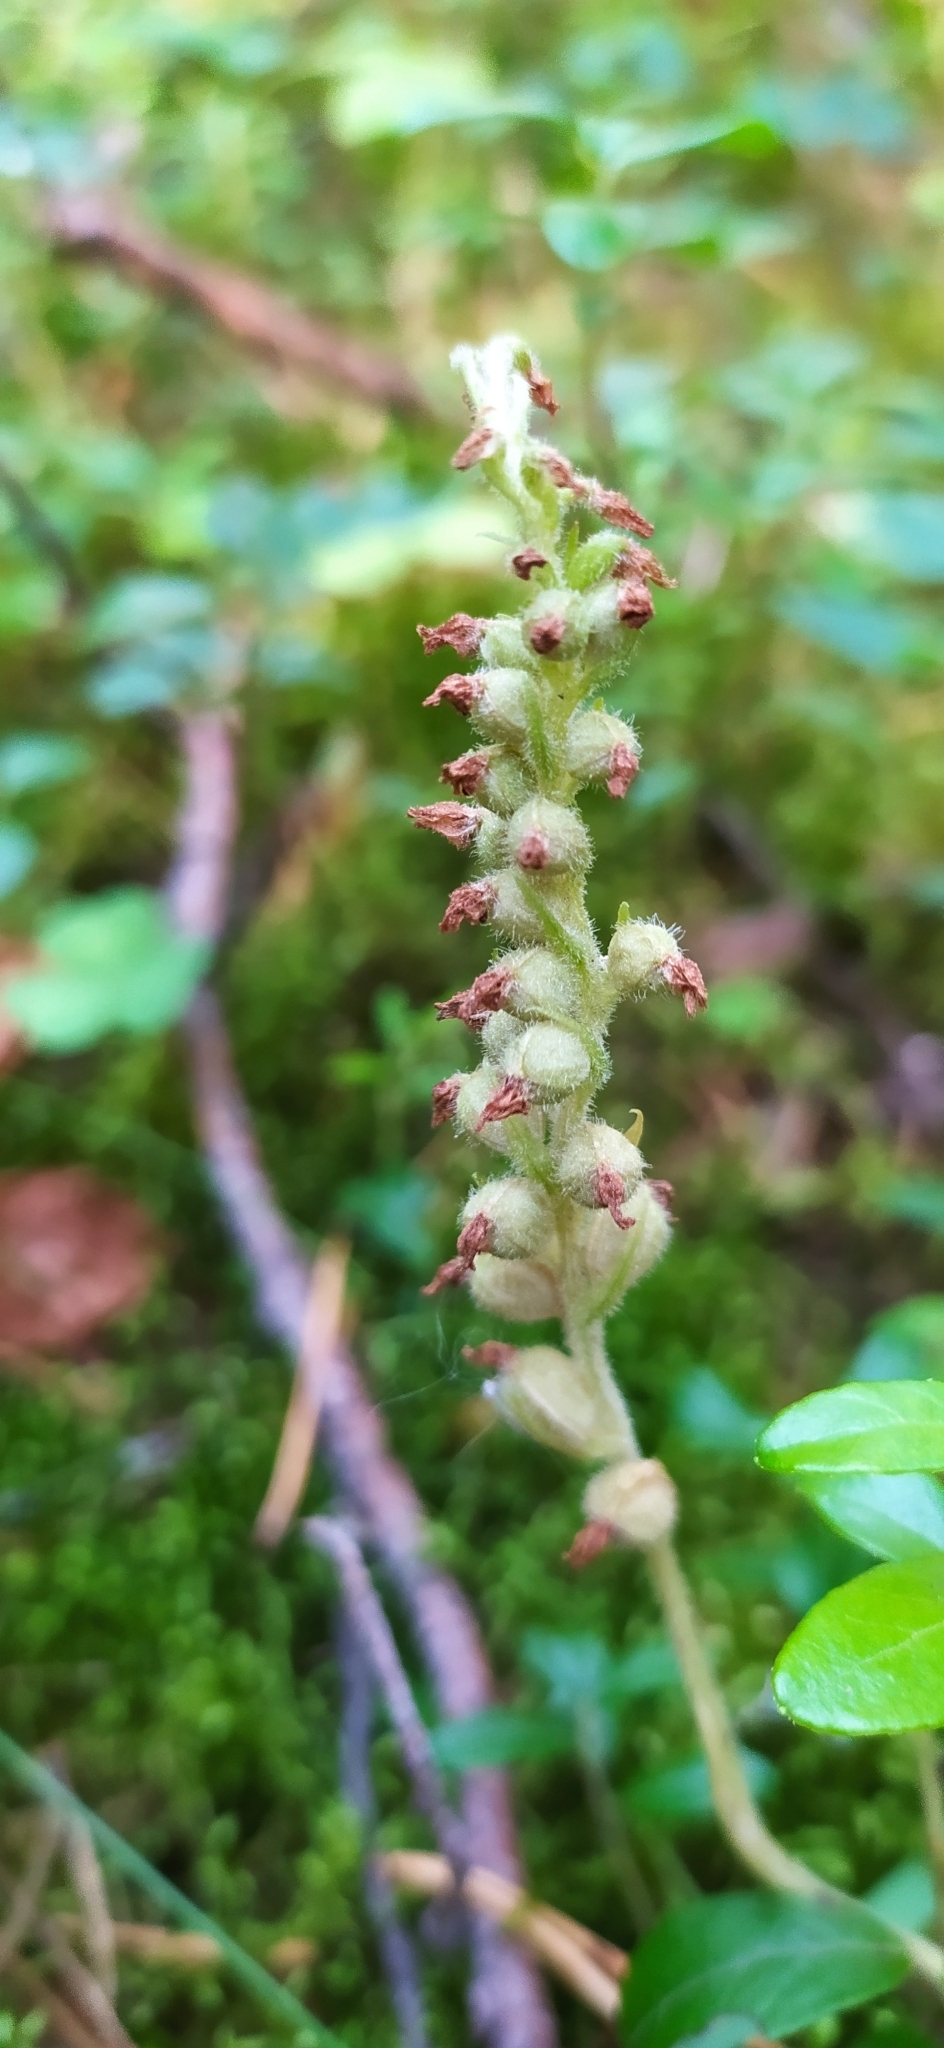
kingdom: Plantae
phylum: Tracheophyta
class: Liliopsida
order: Asparagales
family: Orchidaceae
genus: Goodyera
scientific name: Goodyera repens
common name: Creeping lady's-tresses
